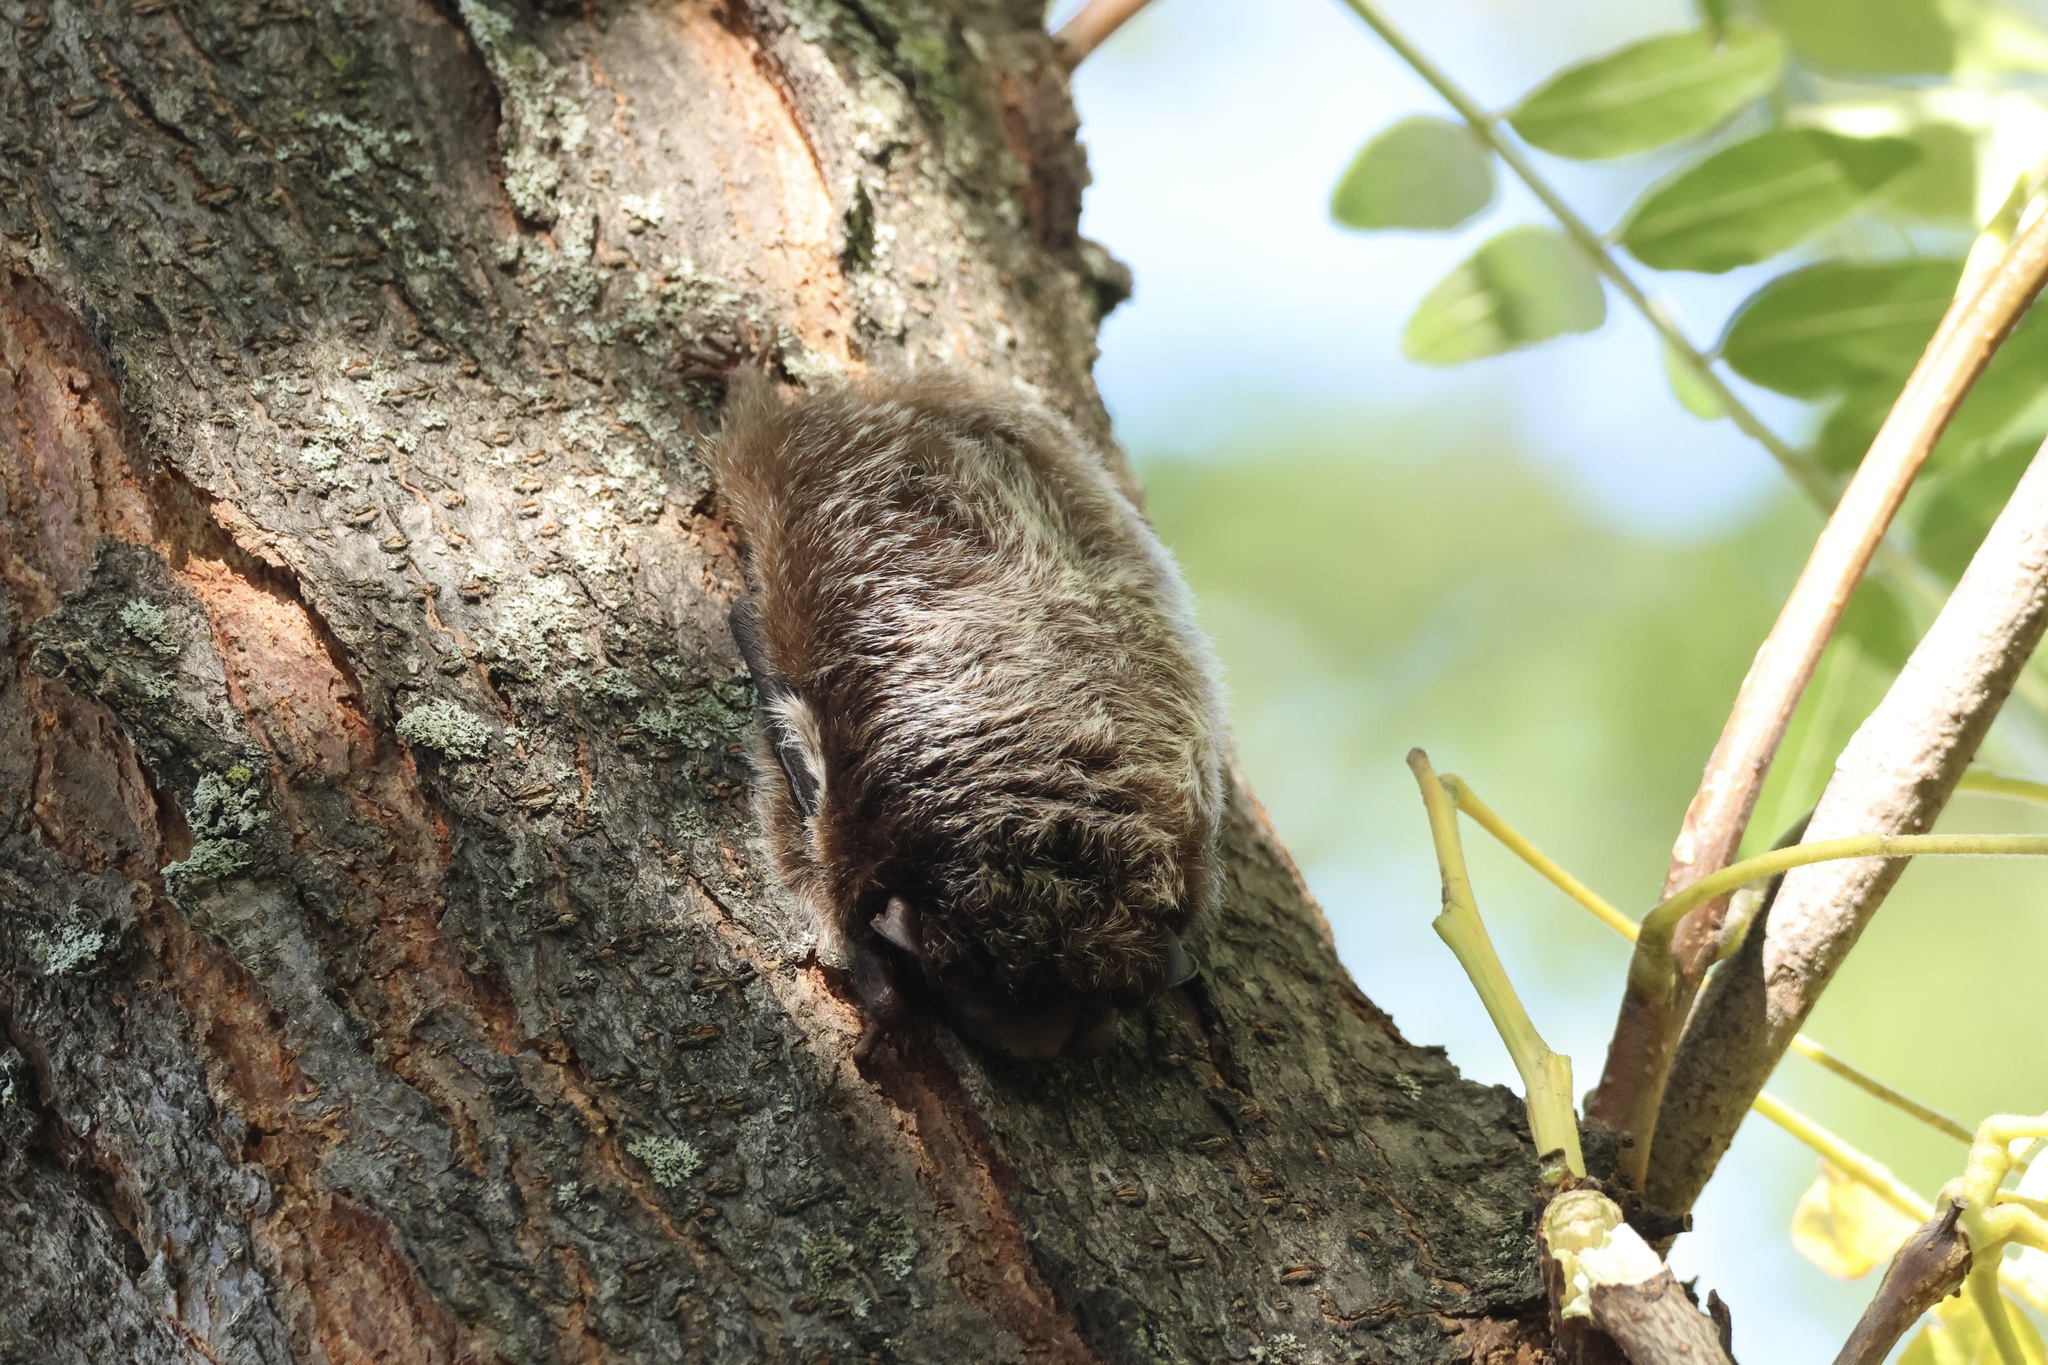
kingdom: Animalia
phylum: Chordata
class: Mammalia
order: Chiroptera
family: Vespertilionidae
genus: Lasionycteris
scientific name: Lasionycteris noctivagans
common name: Silver-haired bat
